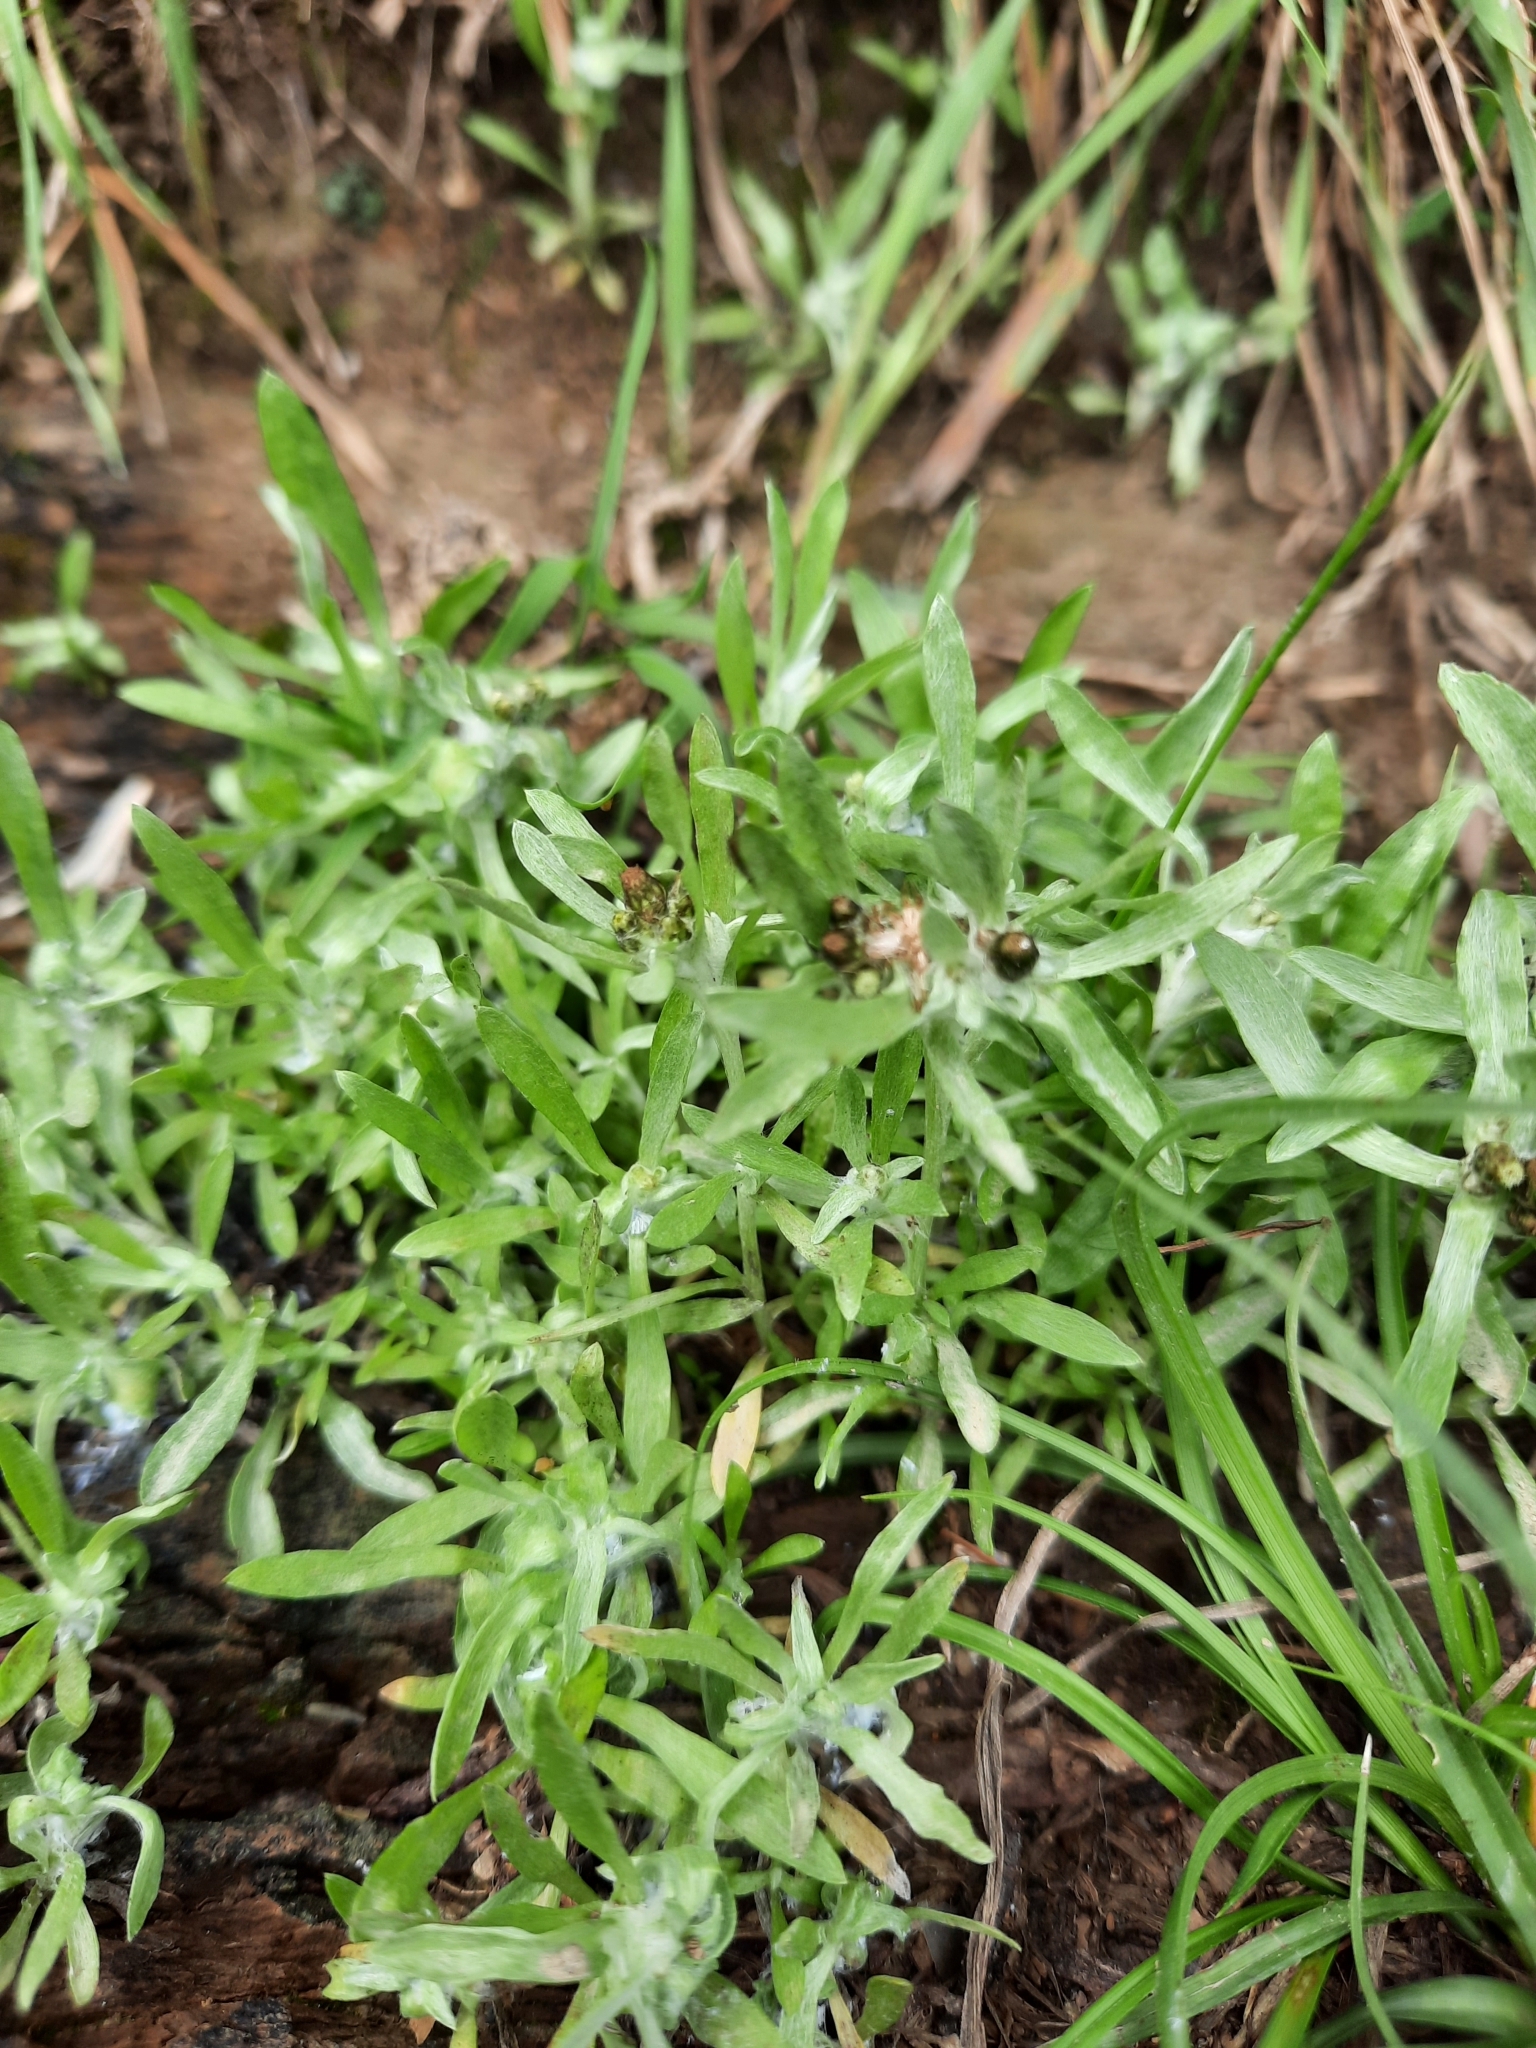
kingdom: Plantae
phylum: Tracheophyta
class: Magnoliopsida
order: Asterales
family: Asteraceae
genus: Gnaphalium
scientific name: Gnaphalium uliginosum
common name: Marsh cudweed
